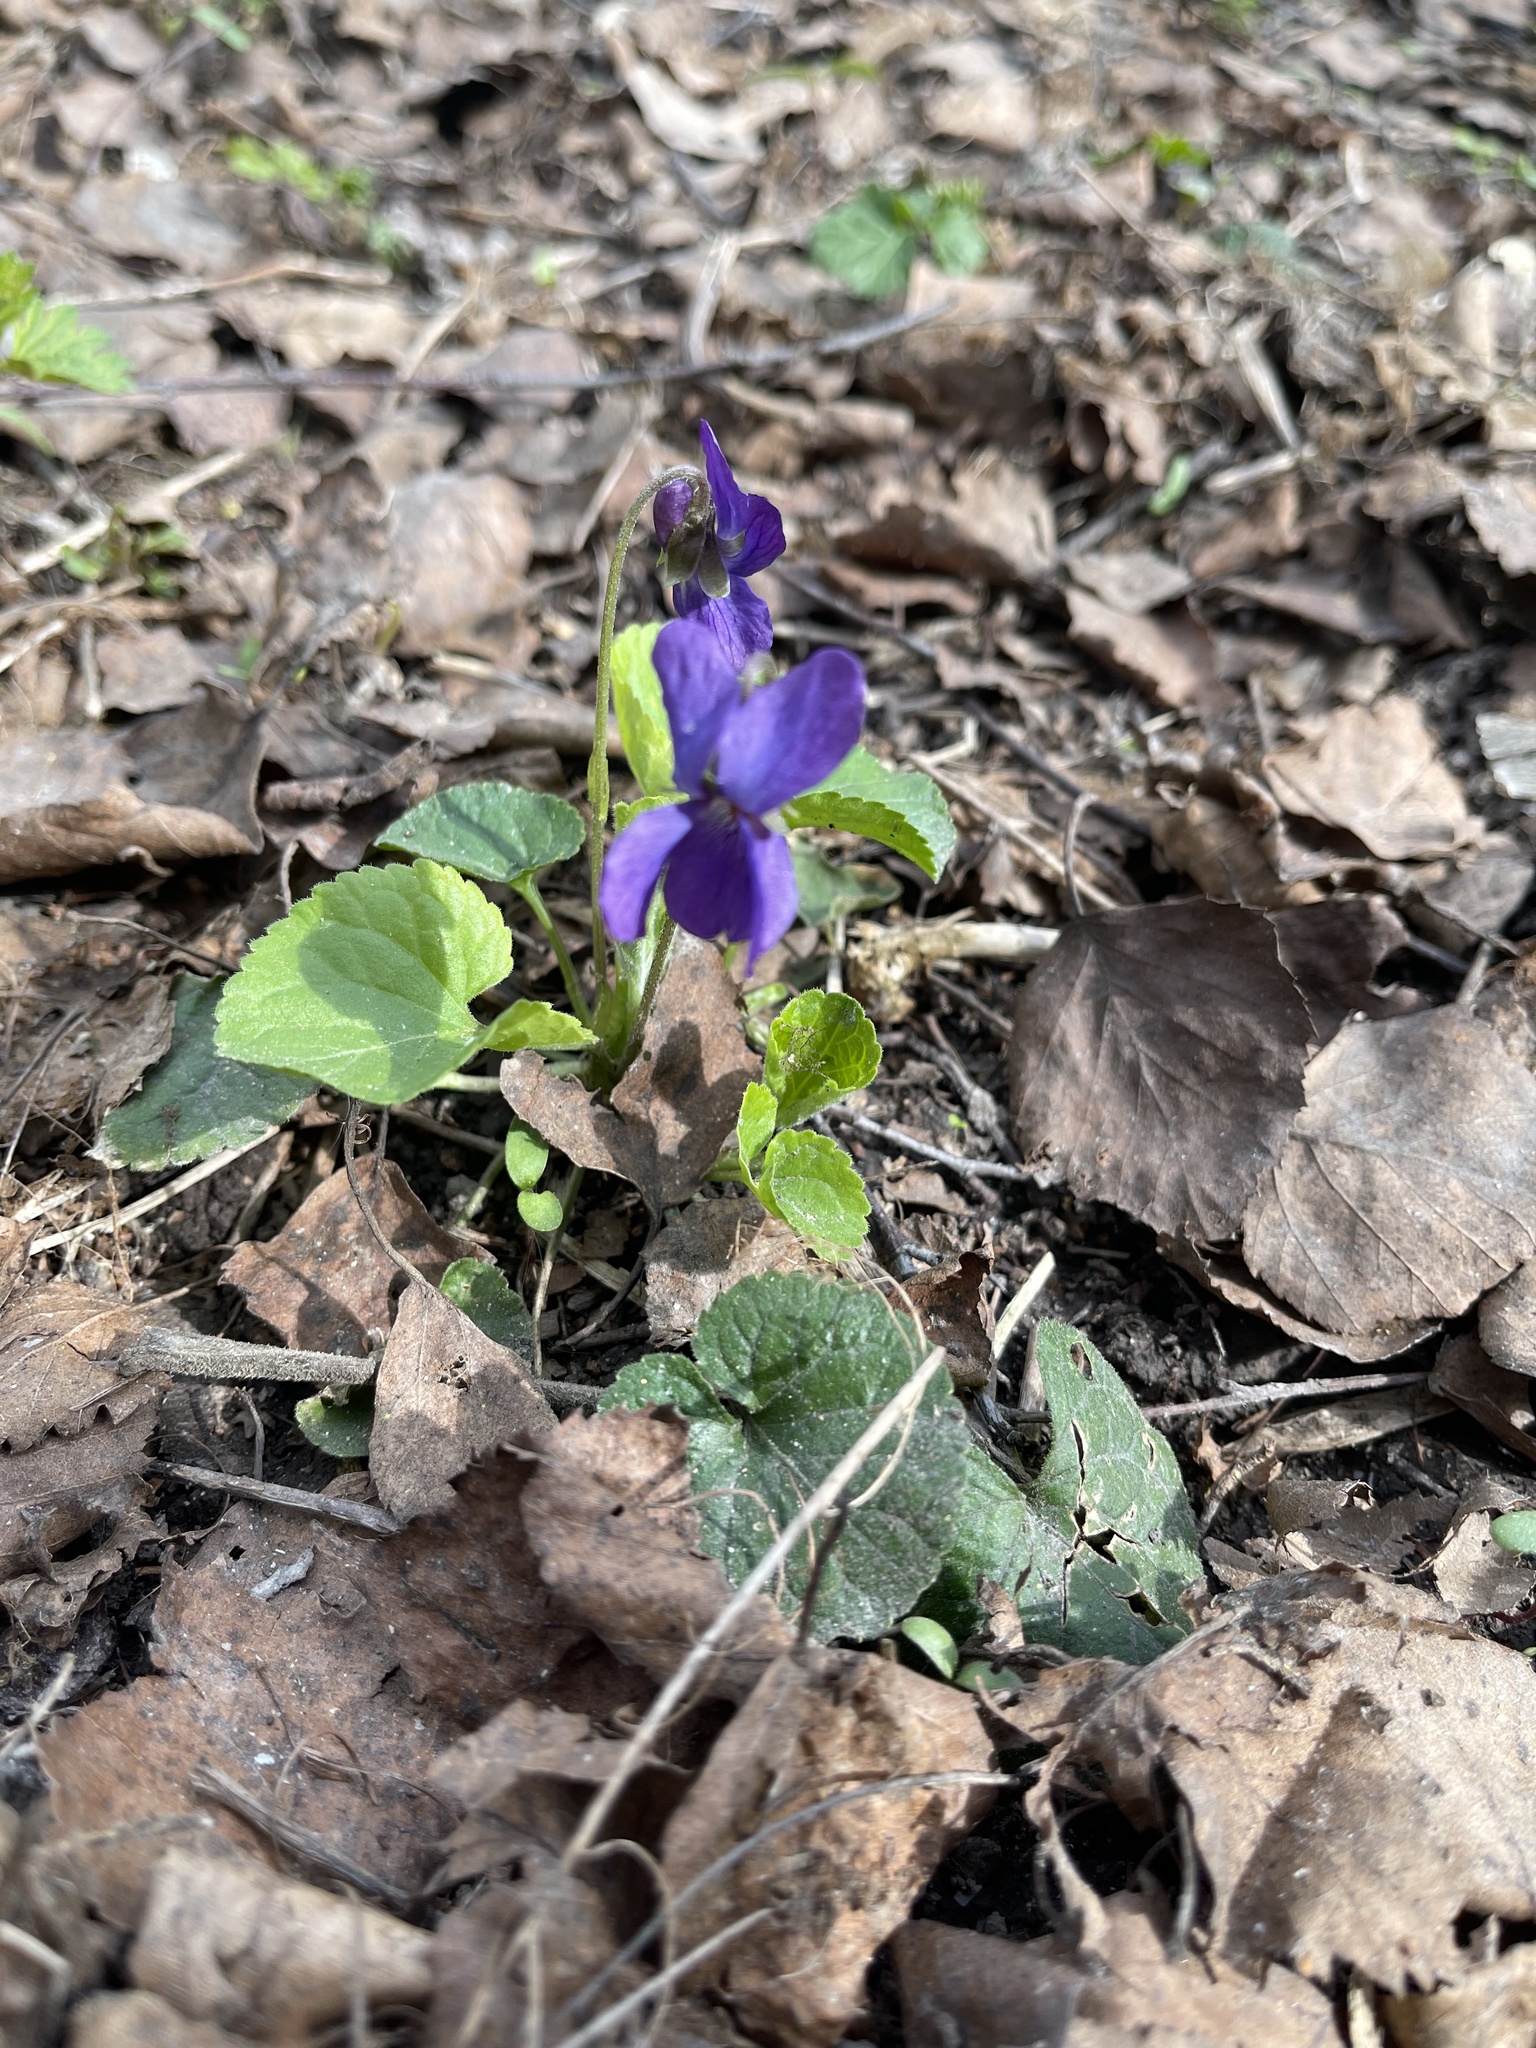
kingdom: Plantae
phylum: Tracheophyta
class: Magnoliopsida
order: Malpighiales
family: Violaceae
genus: Viola
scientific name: Viola odorata
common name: Sweet violet
